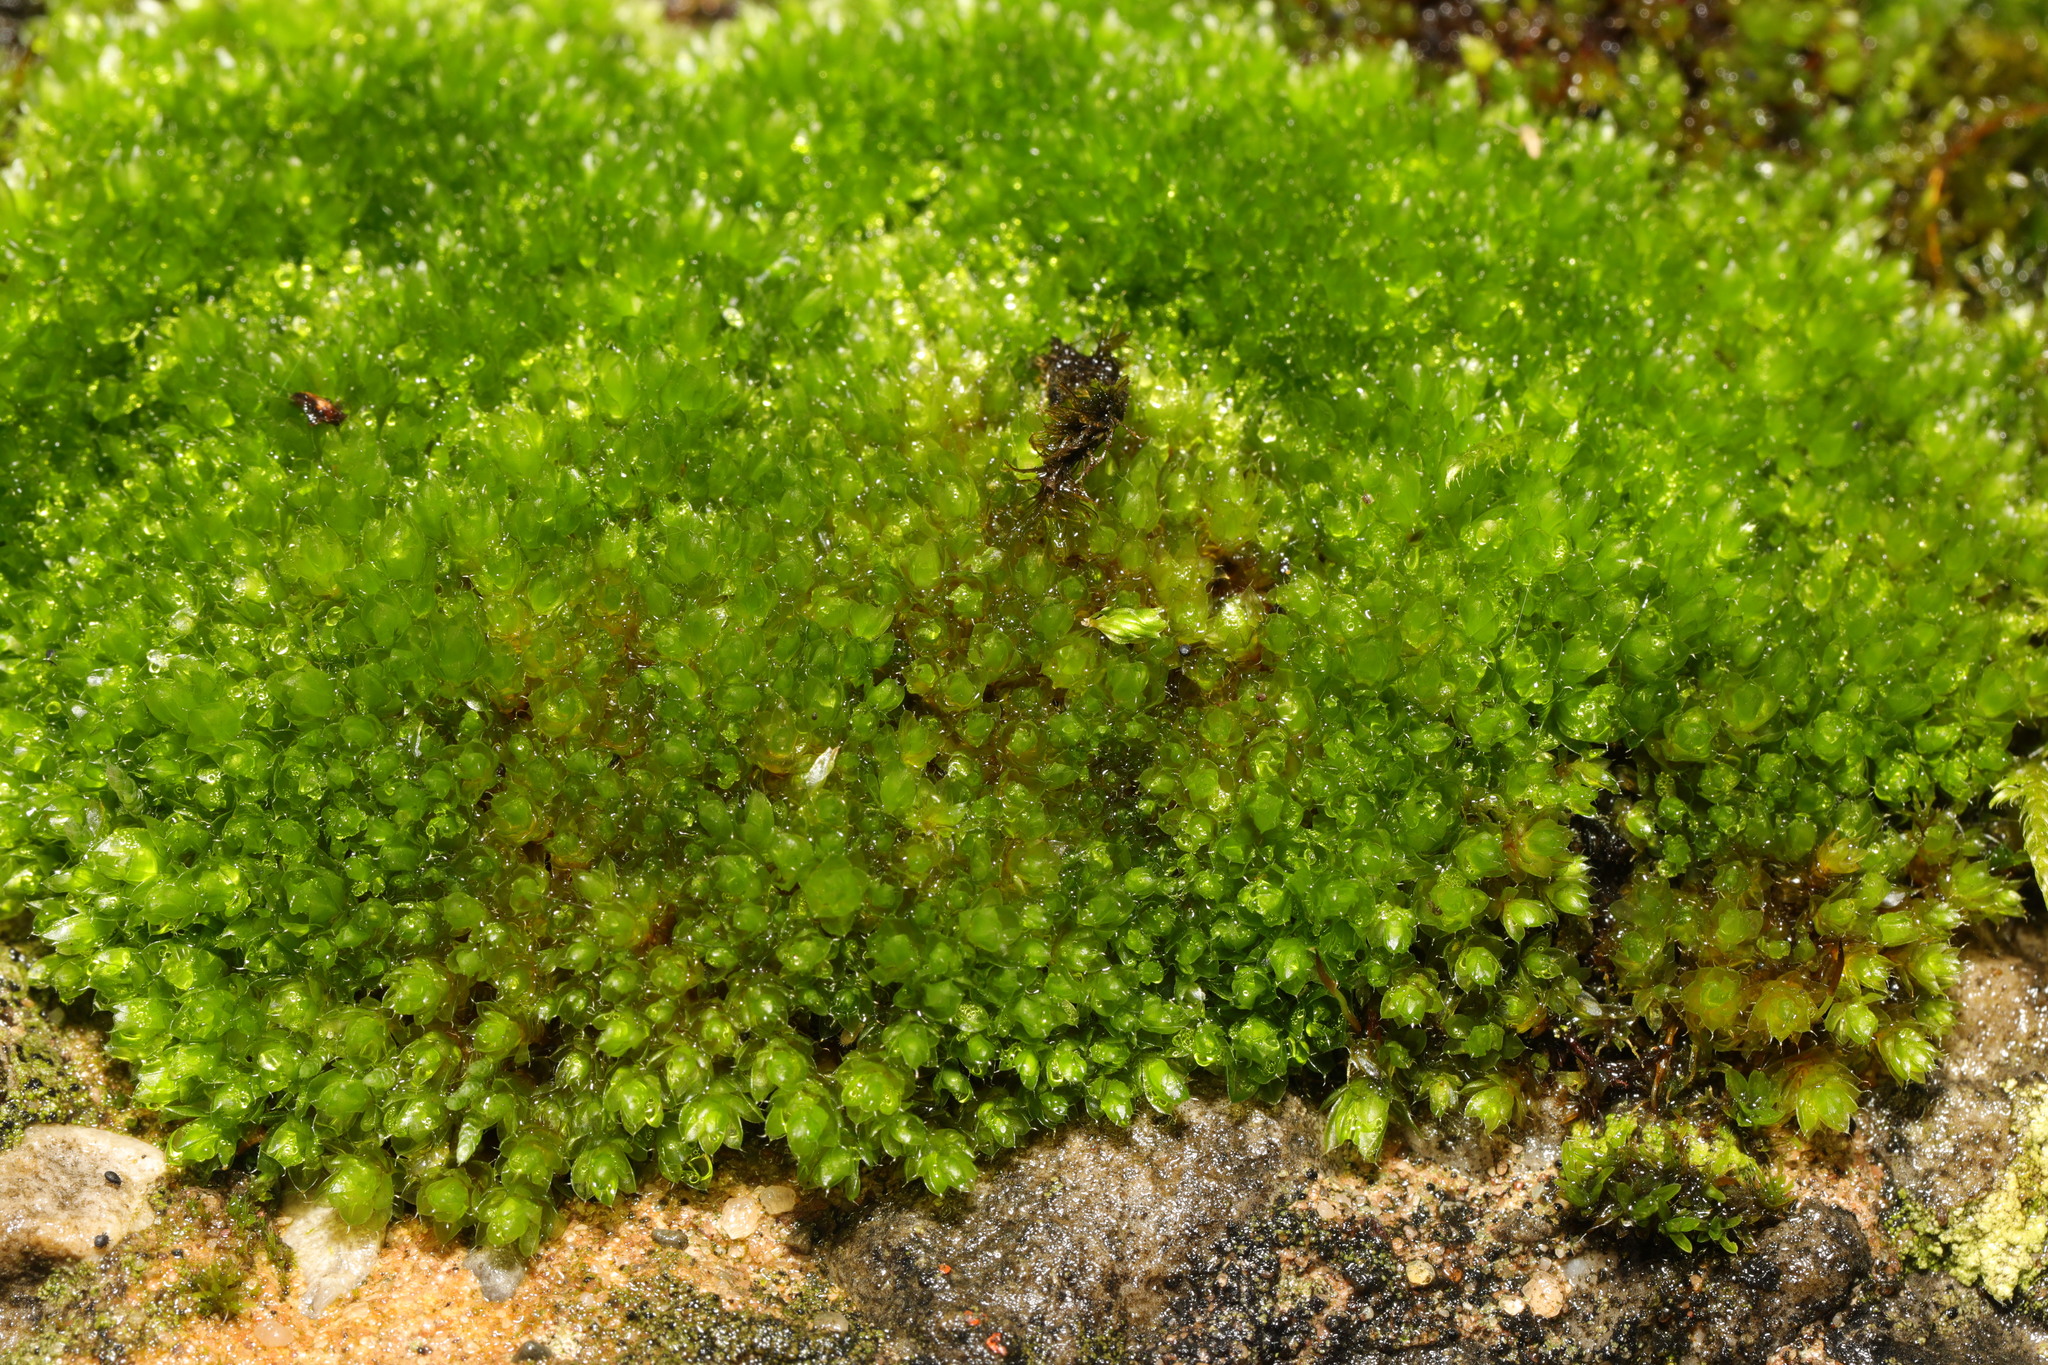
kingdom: Plantae
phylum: Bryophyta
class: Bryopsida
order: Bryales
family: Bryaceae
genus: Rosulabryum
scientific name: Rosulabryum capillare
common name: Capillary thread-moss
